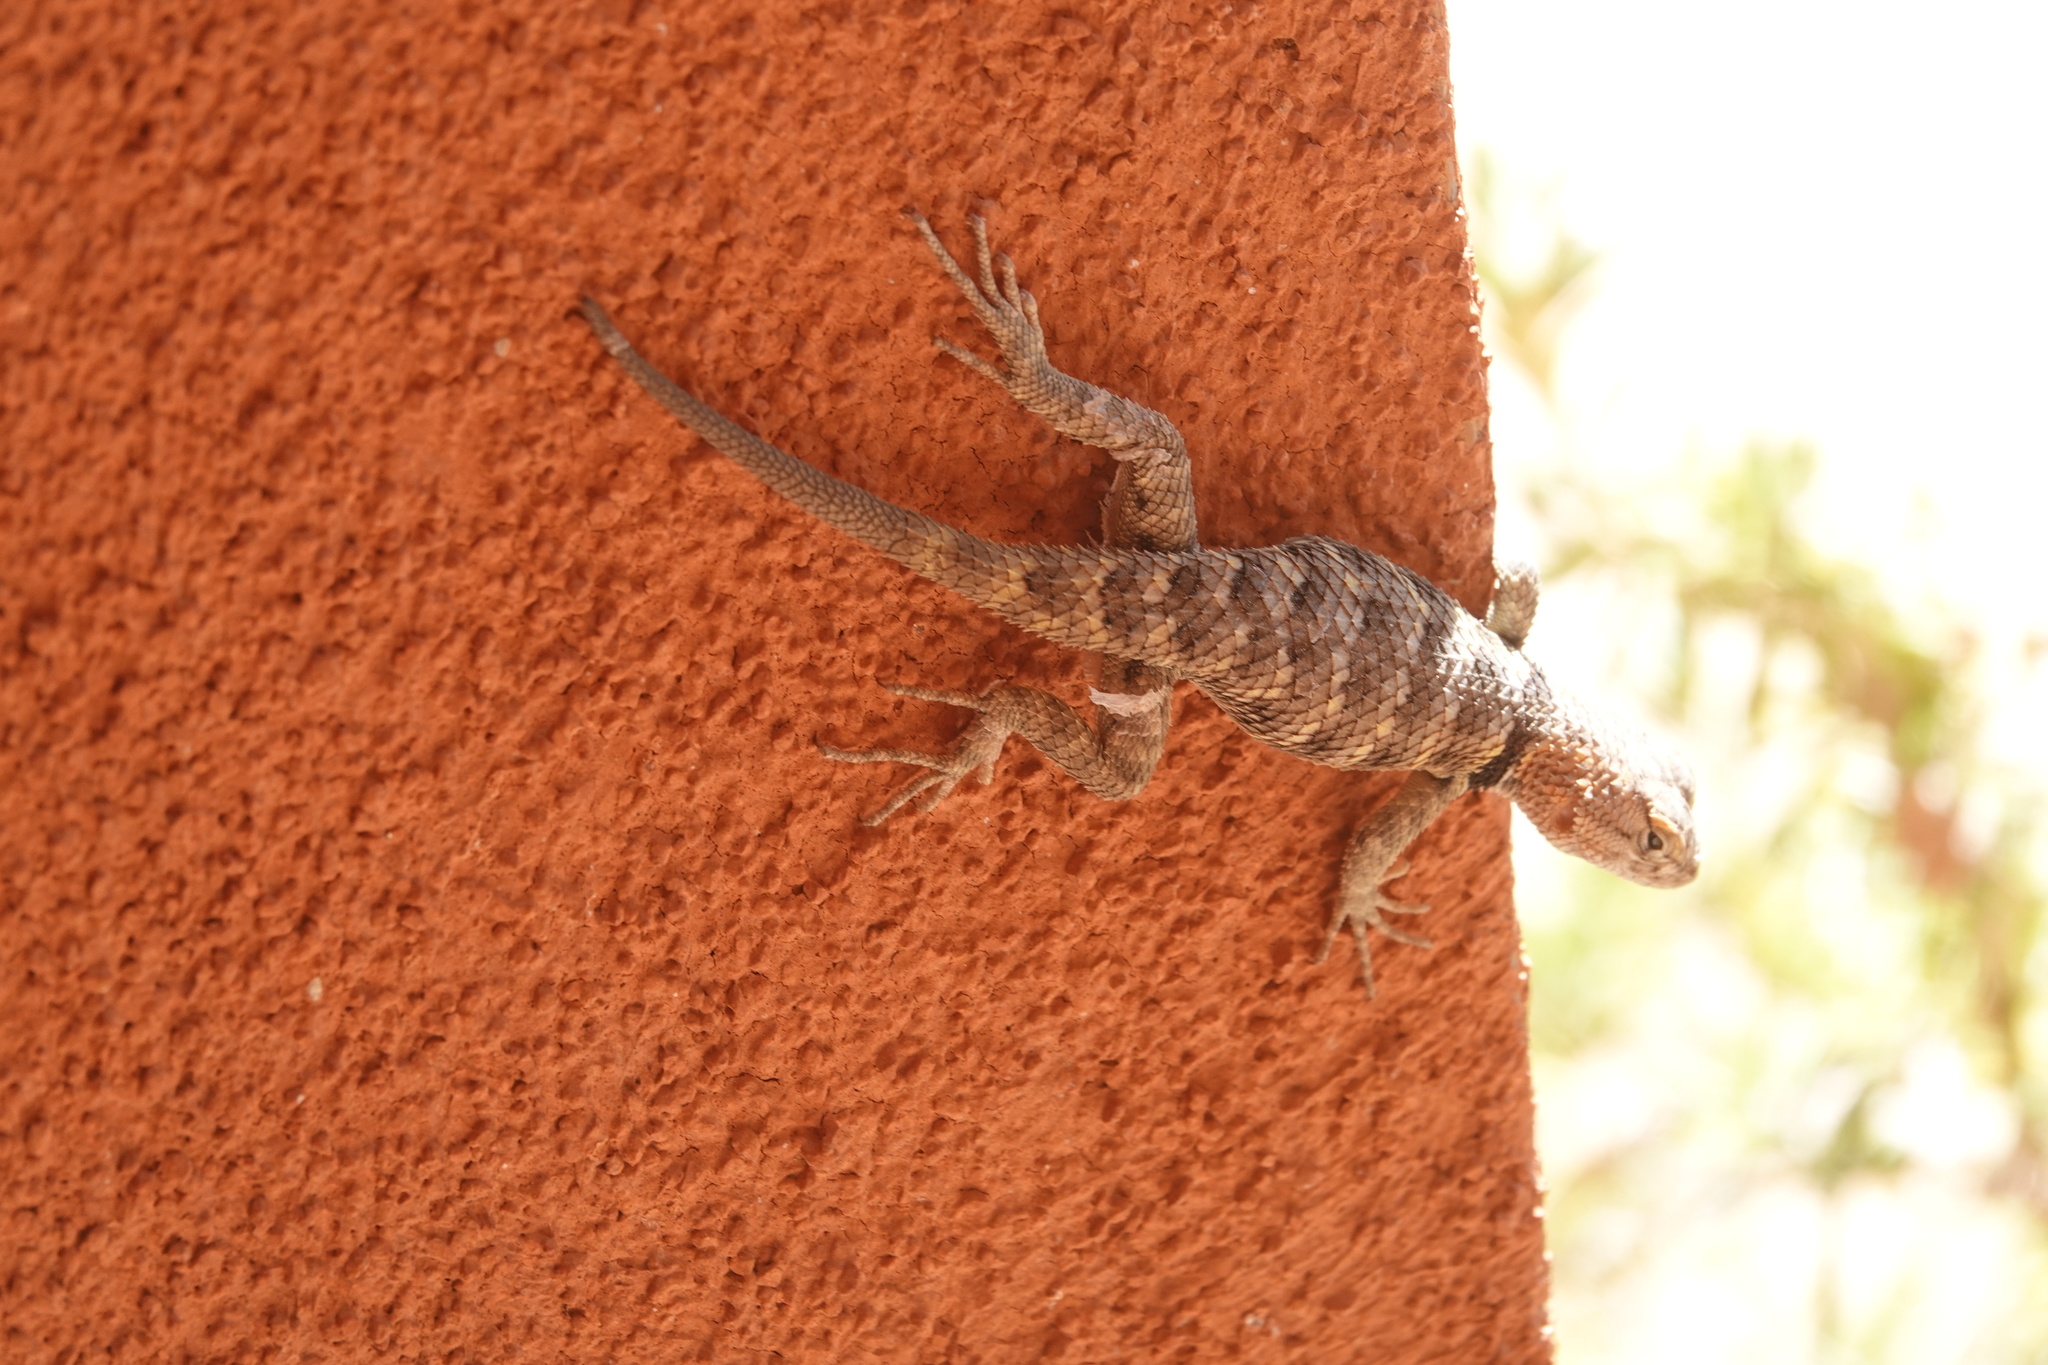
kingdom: Animalia
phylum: Chordata
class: Squamata
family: Phrynosomatidae
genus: Sceloporus
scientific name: Sceloporus uniformis
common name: Yellow-backed spiny lizard
